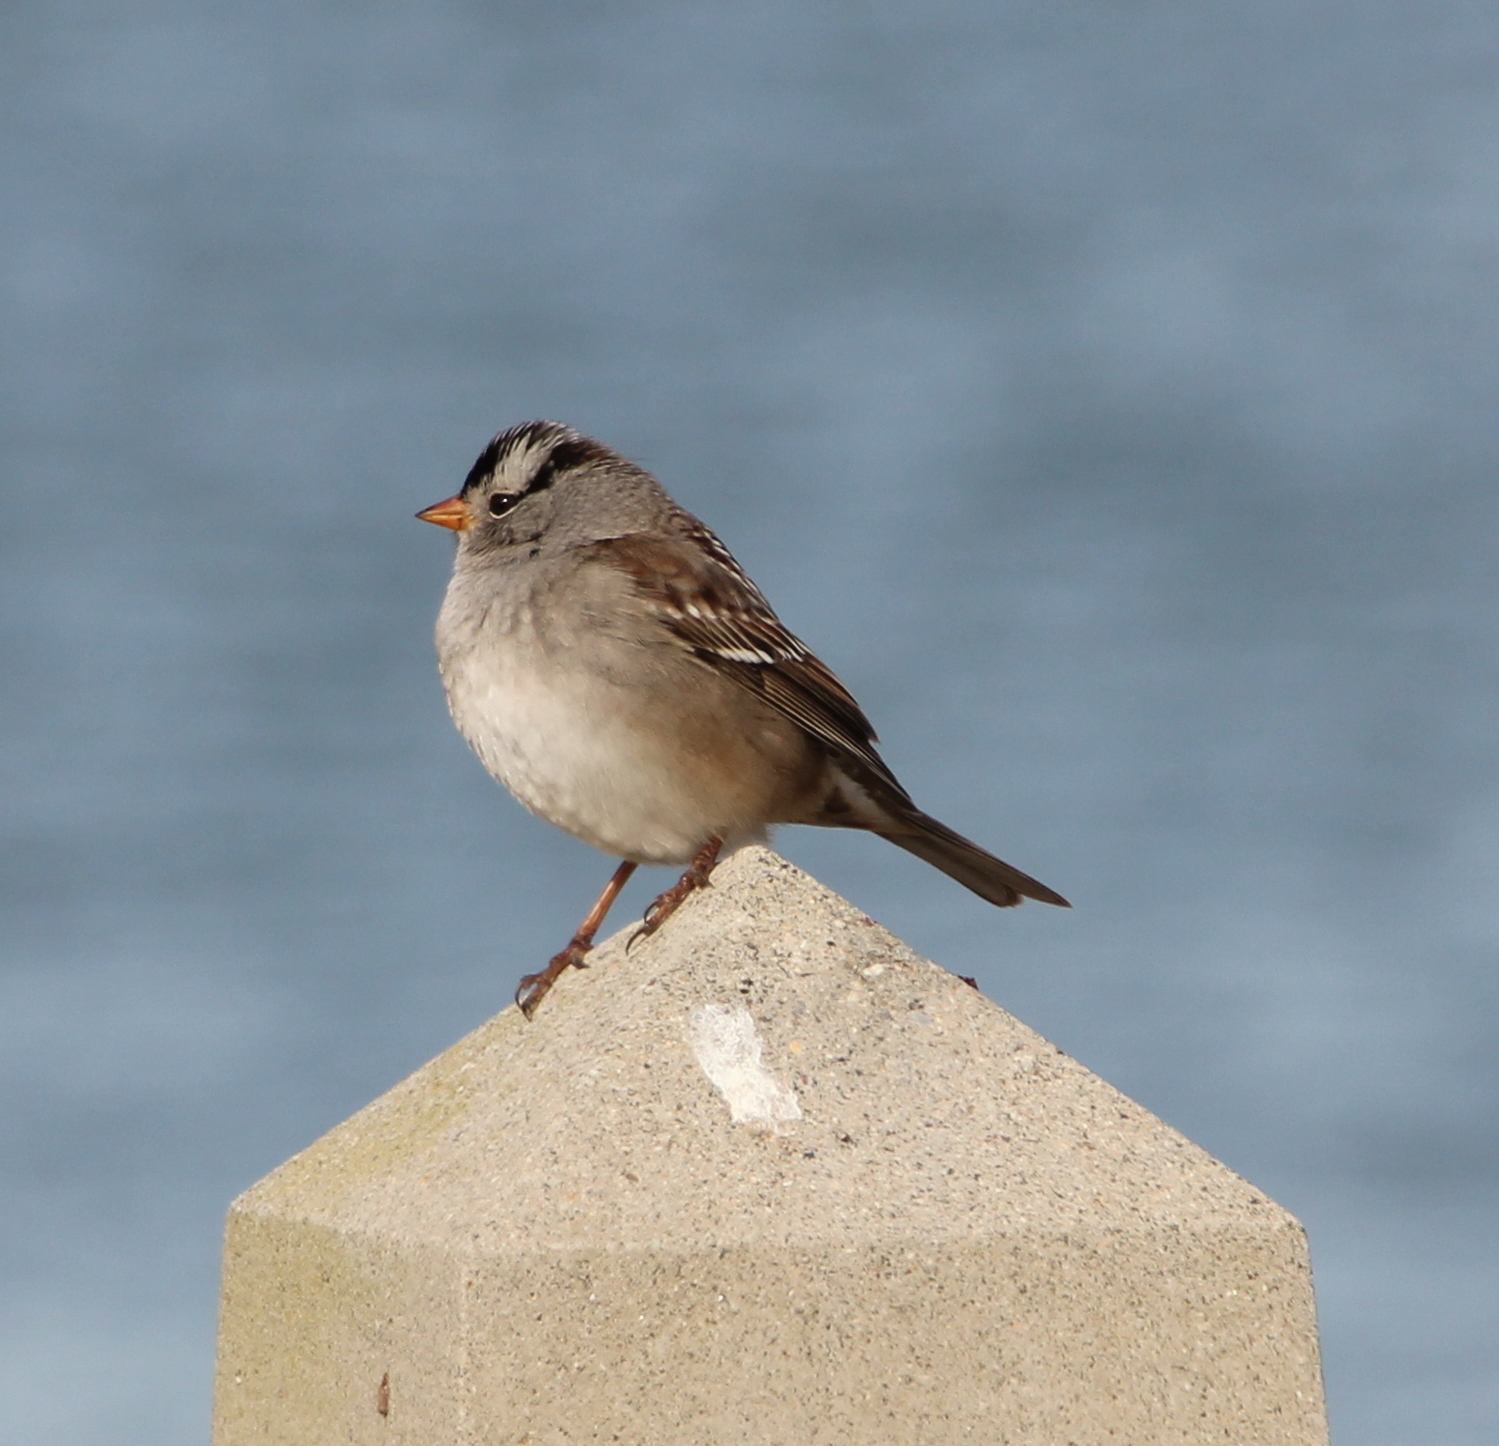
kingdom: Animalia
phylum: Chordata
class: Aves
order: Passeriformes
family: Passerellidae
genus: Zonotrichia
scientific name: Zonotrichia leucophrys
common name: White-crowned sparrow
